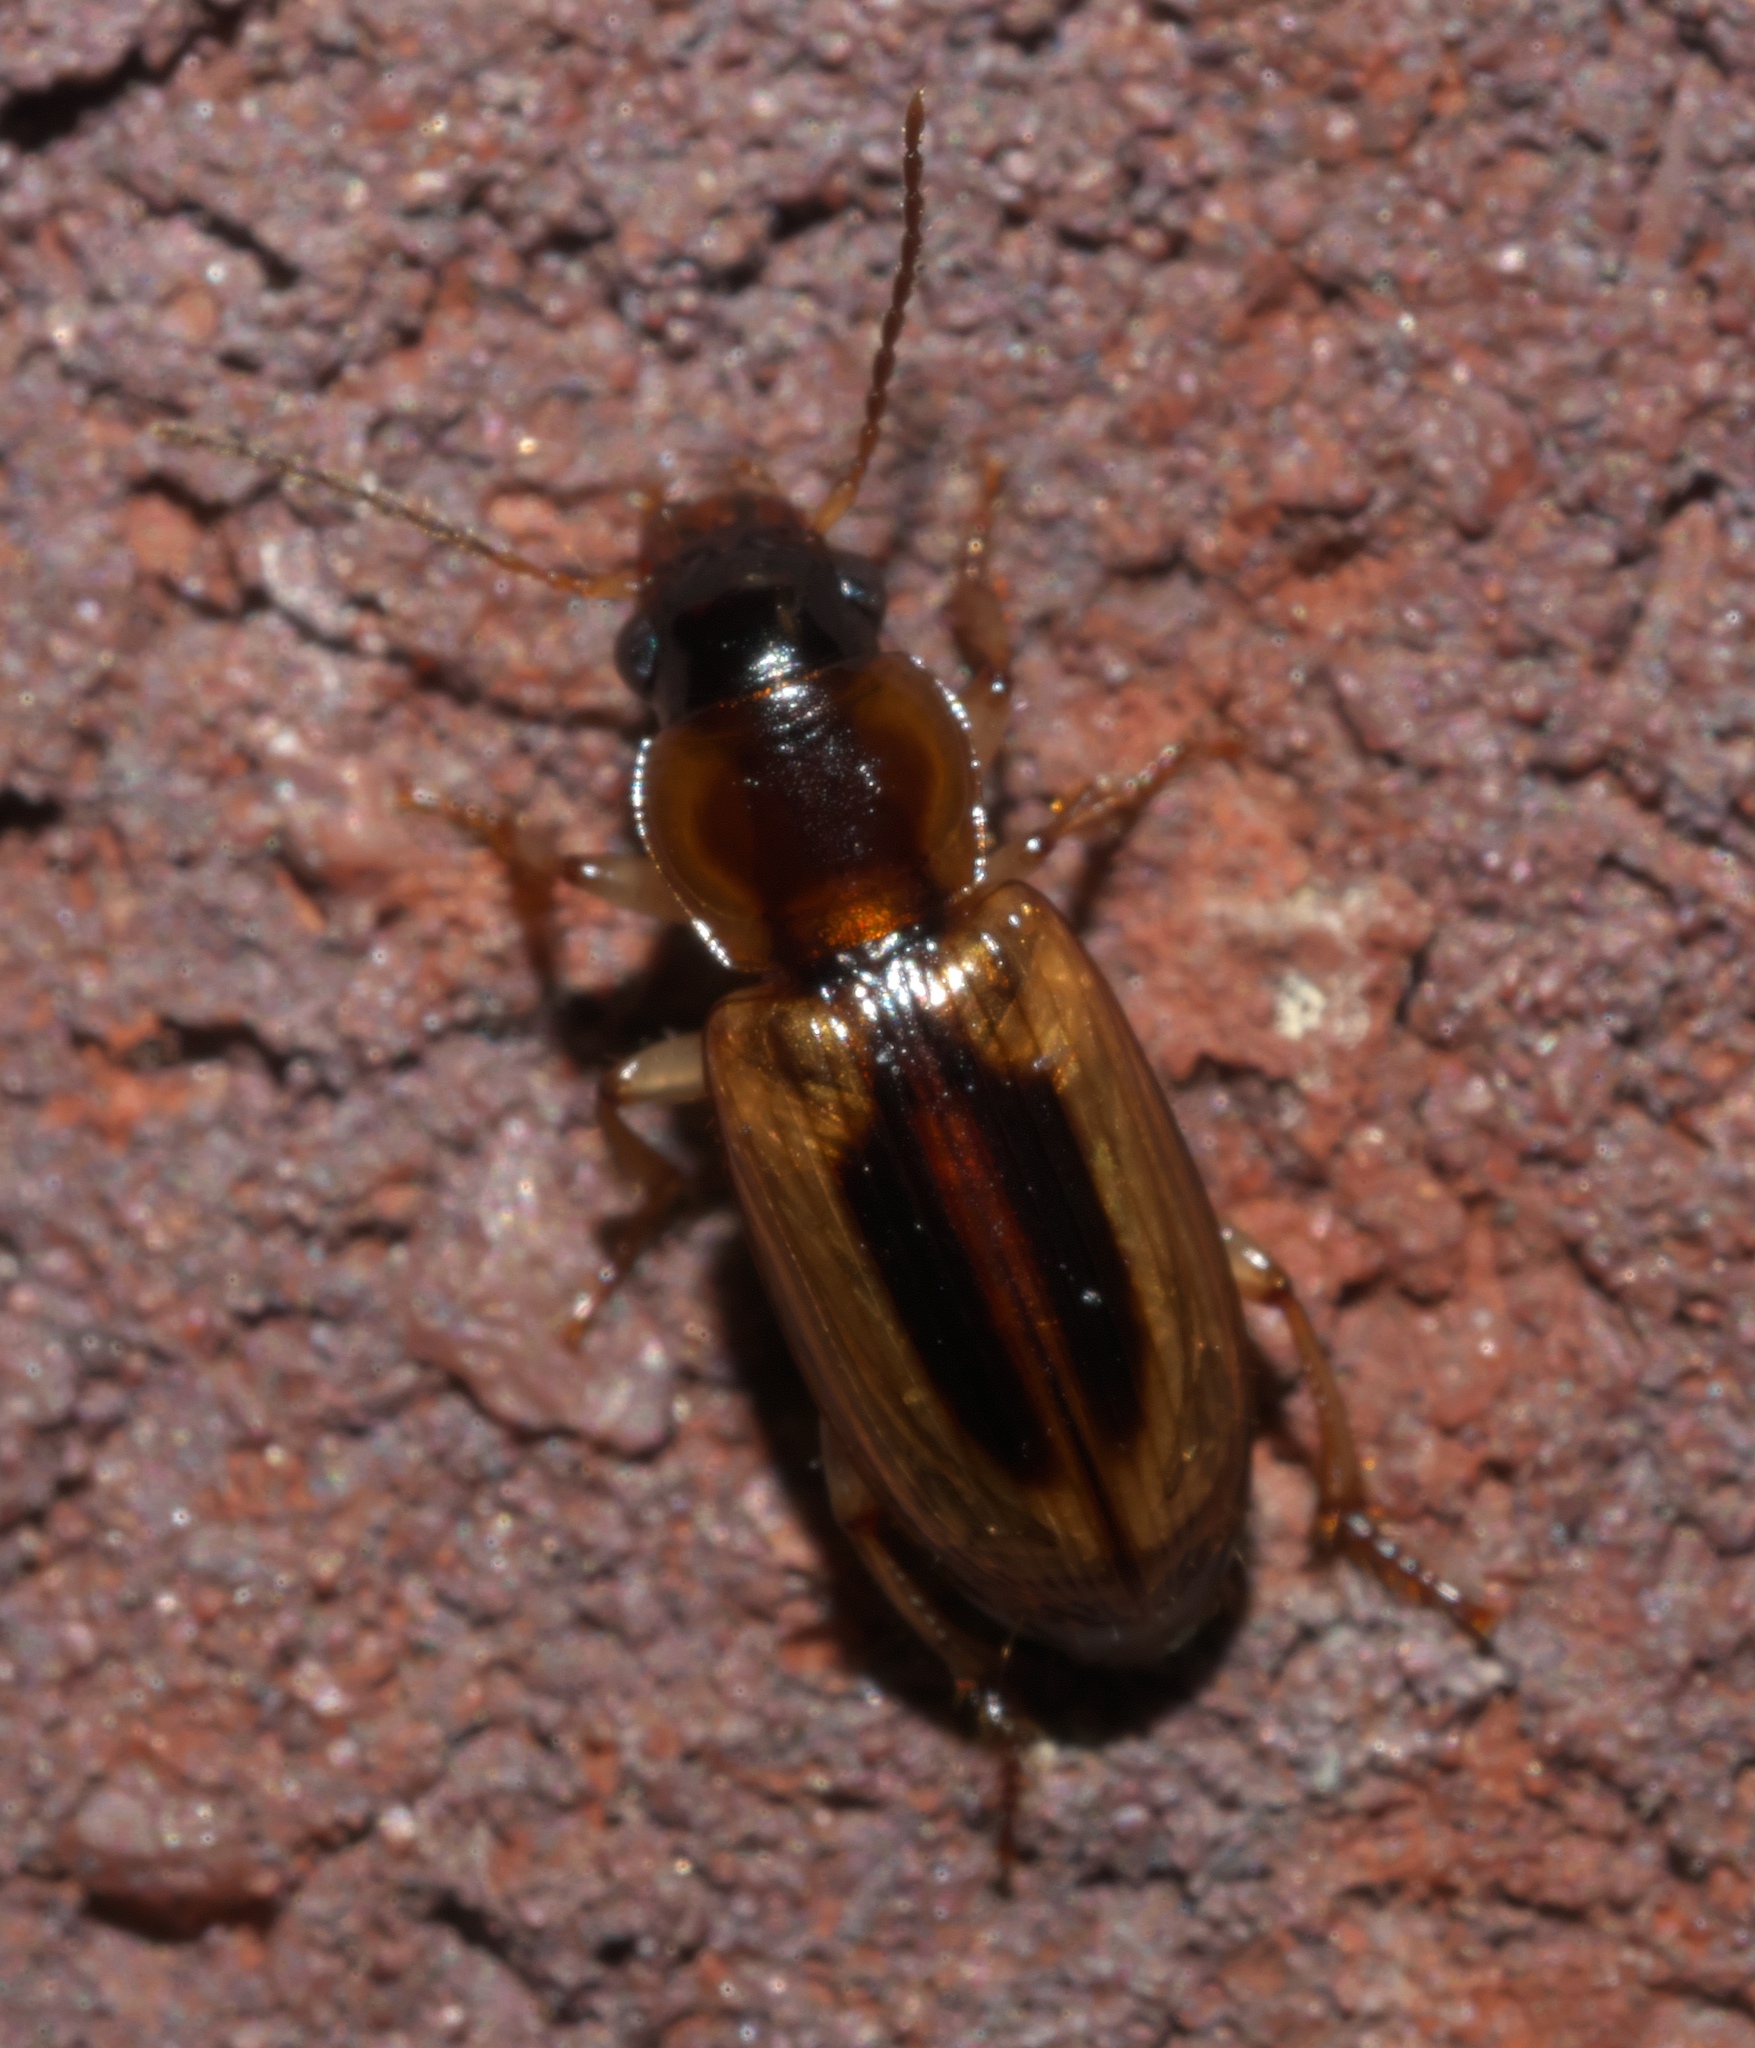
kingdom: Animalia
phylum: Arthropoda
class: Insecta
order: Coleoptera
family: Carabidae
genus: Stenolophus
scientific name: Stenolophus lecontei
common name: Leconte's seedcorn beetle
